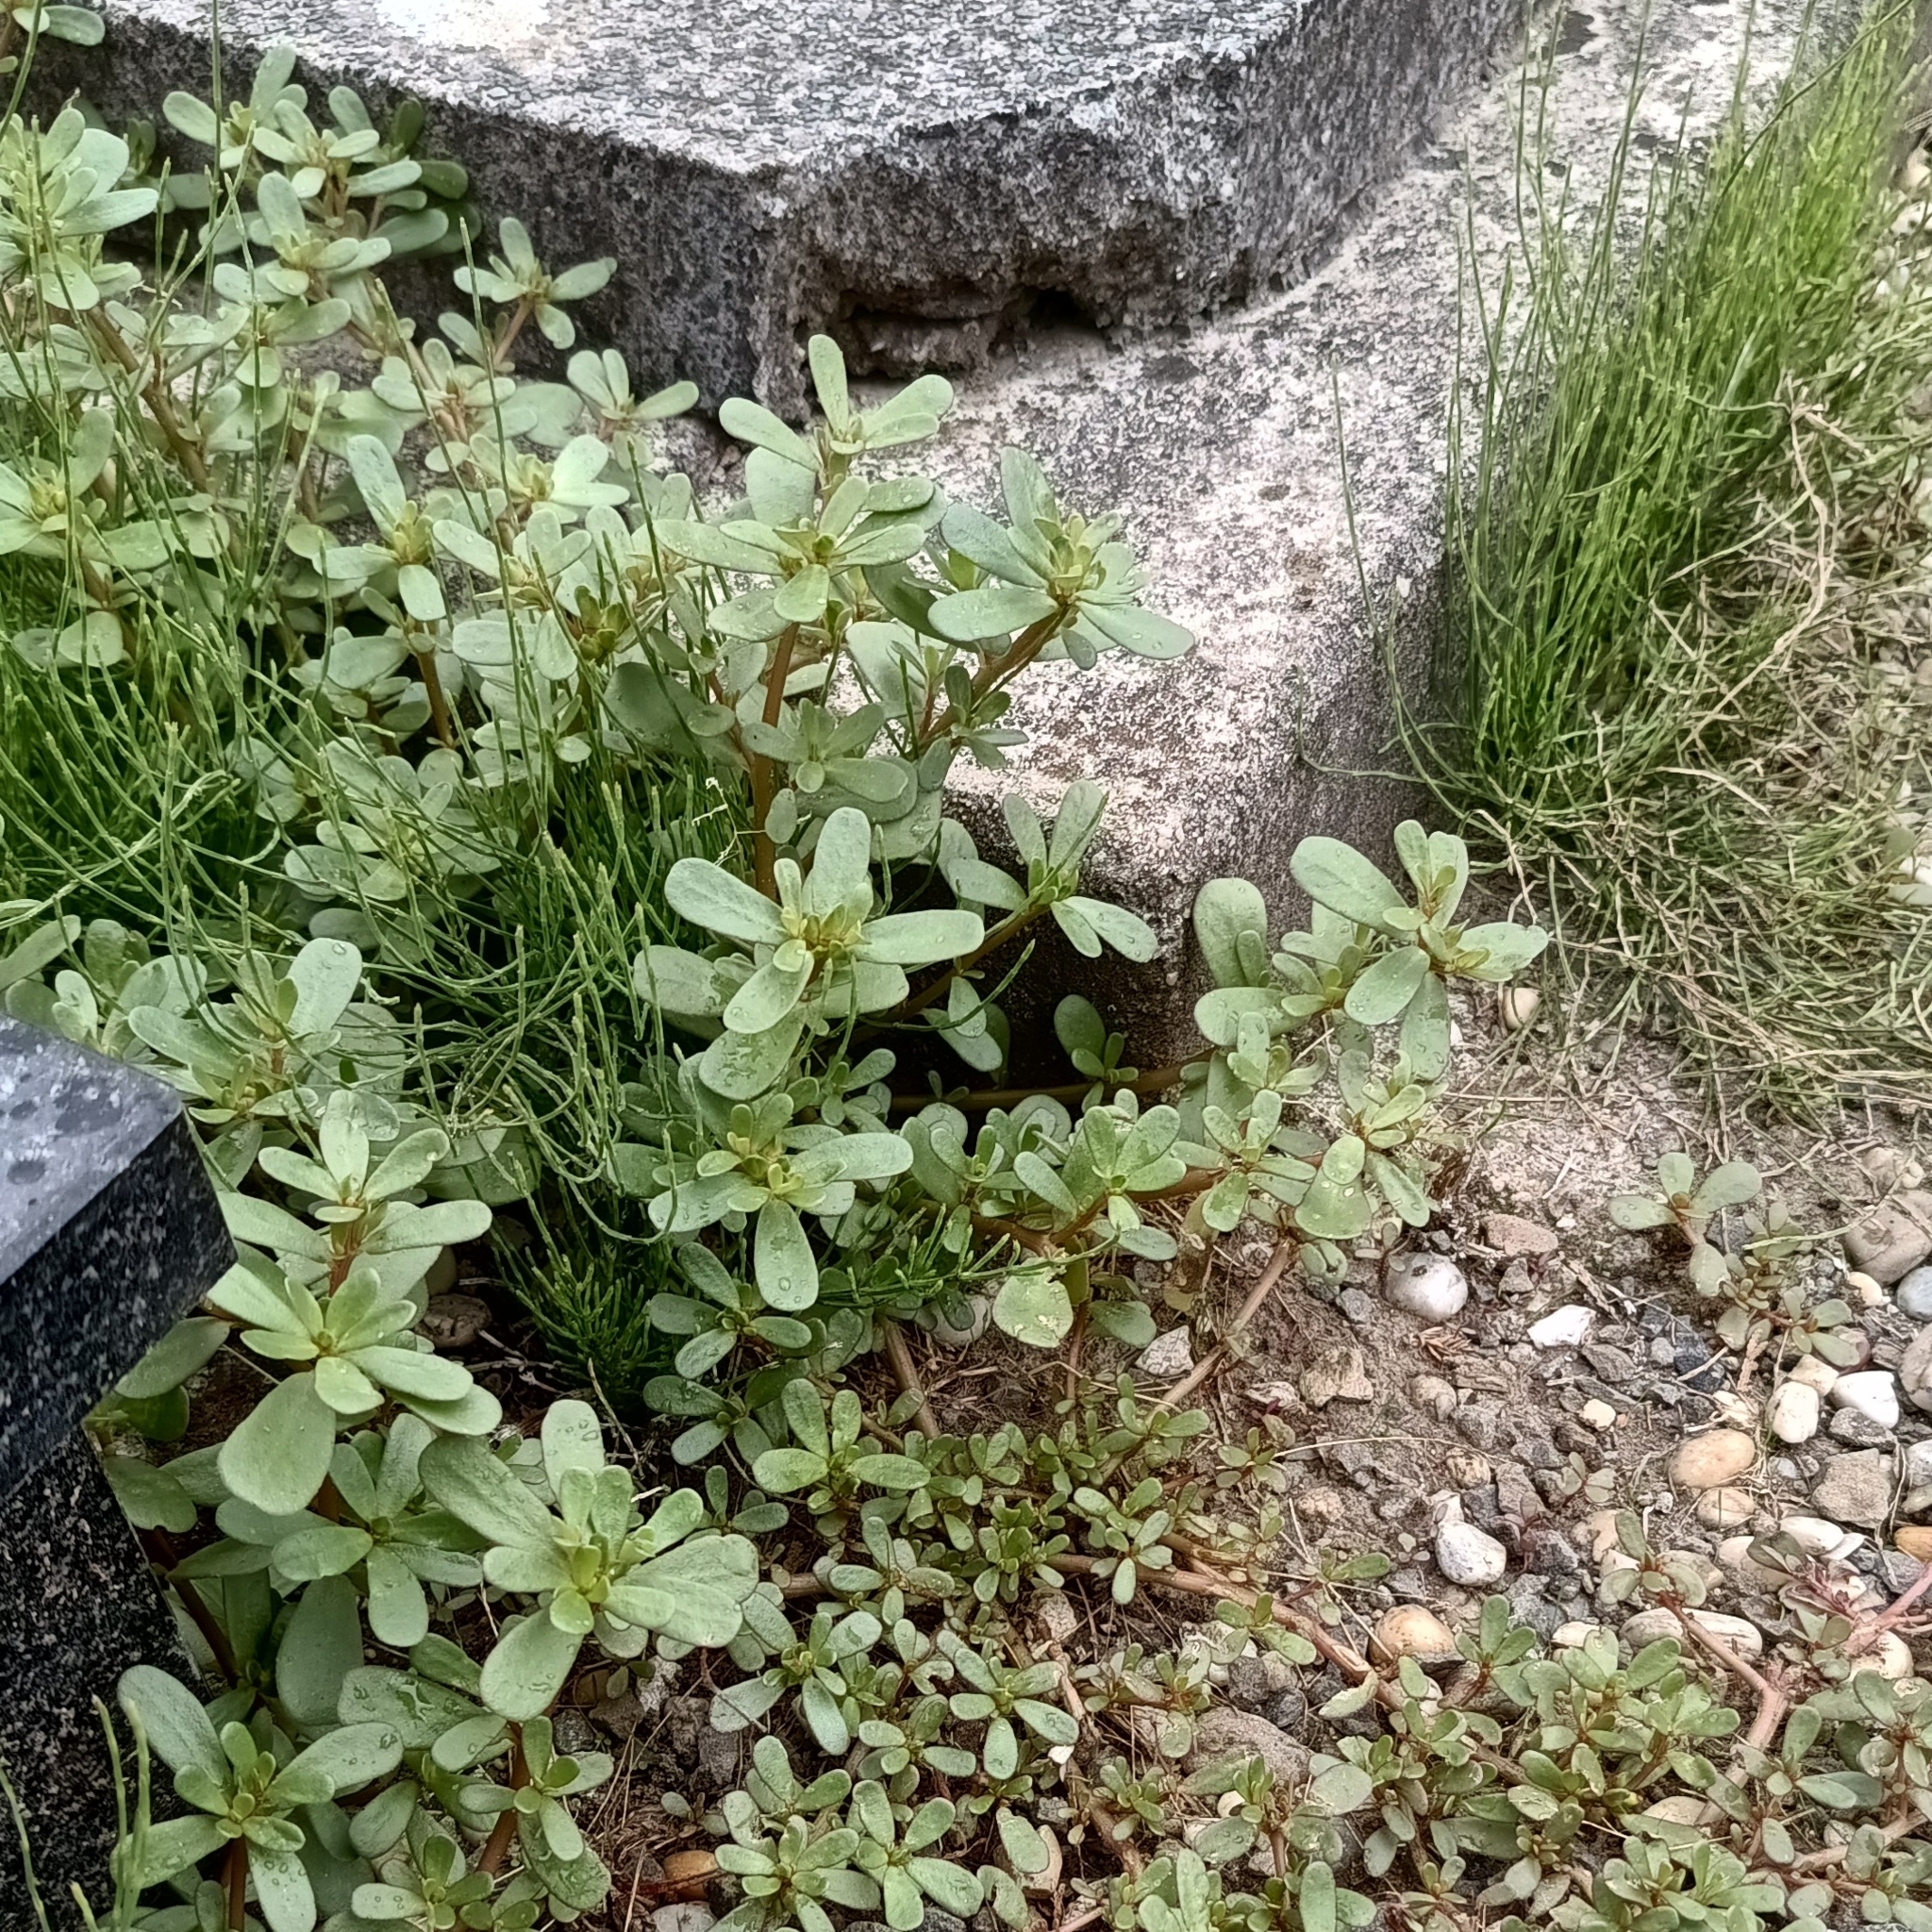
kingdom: Plantae
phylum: Tracheophyta
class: Magnoliopsida
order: Caryophyllales
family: Portulacaceae
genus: Portulaca
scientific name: Portulaca oleracea
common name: Common purslane
